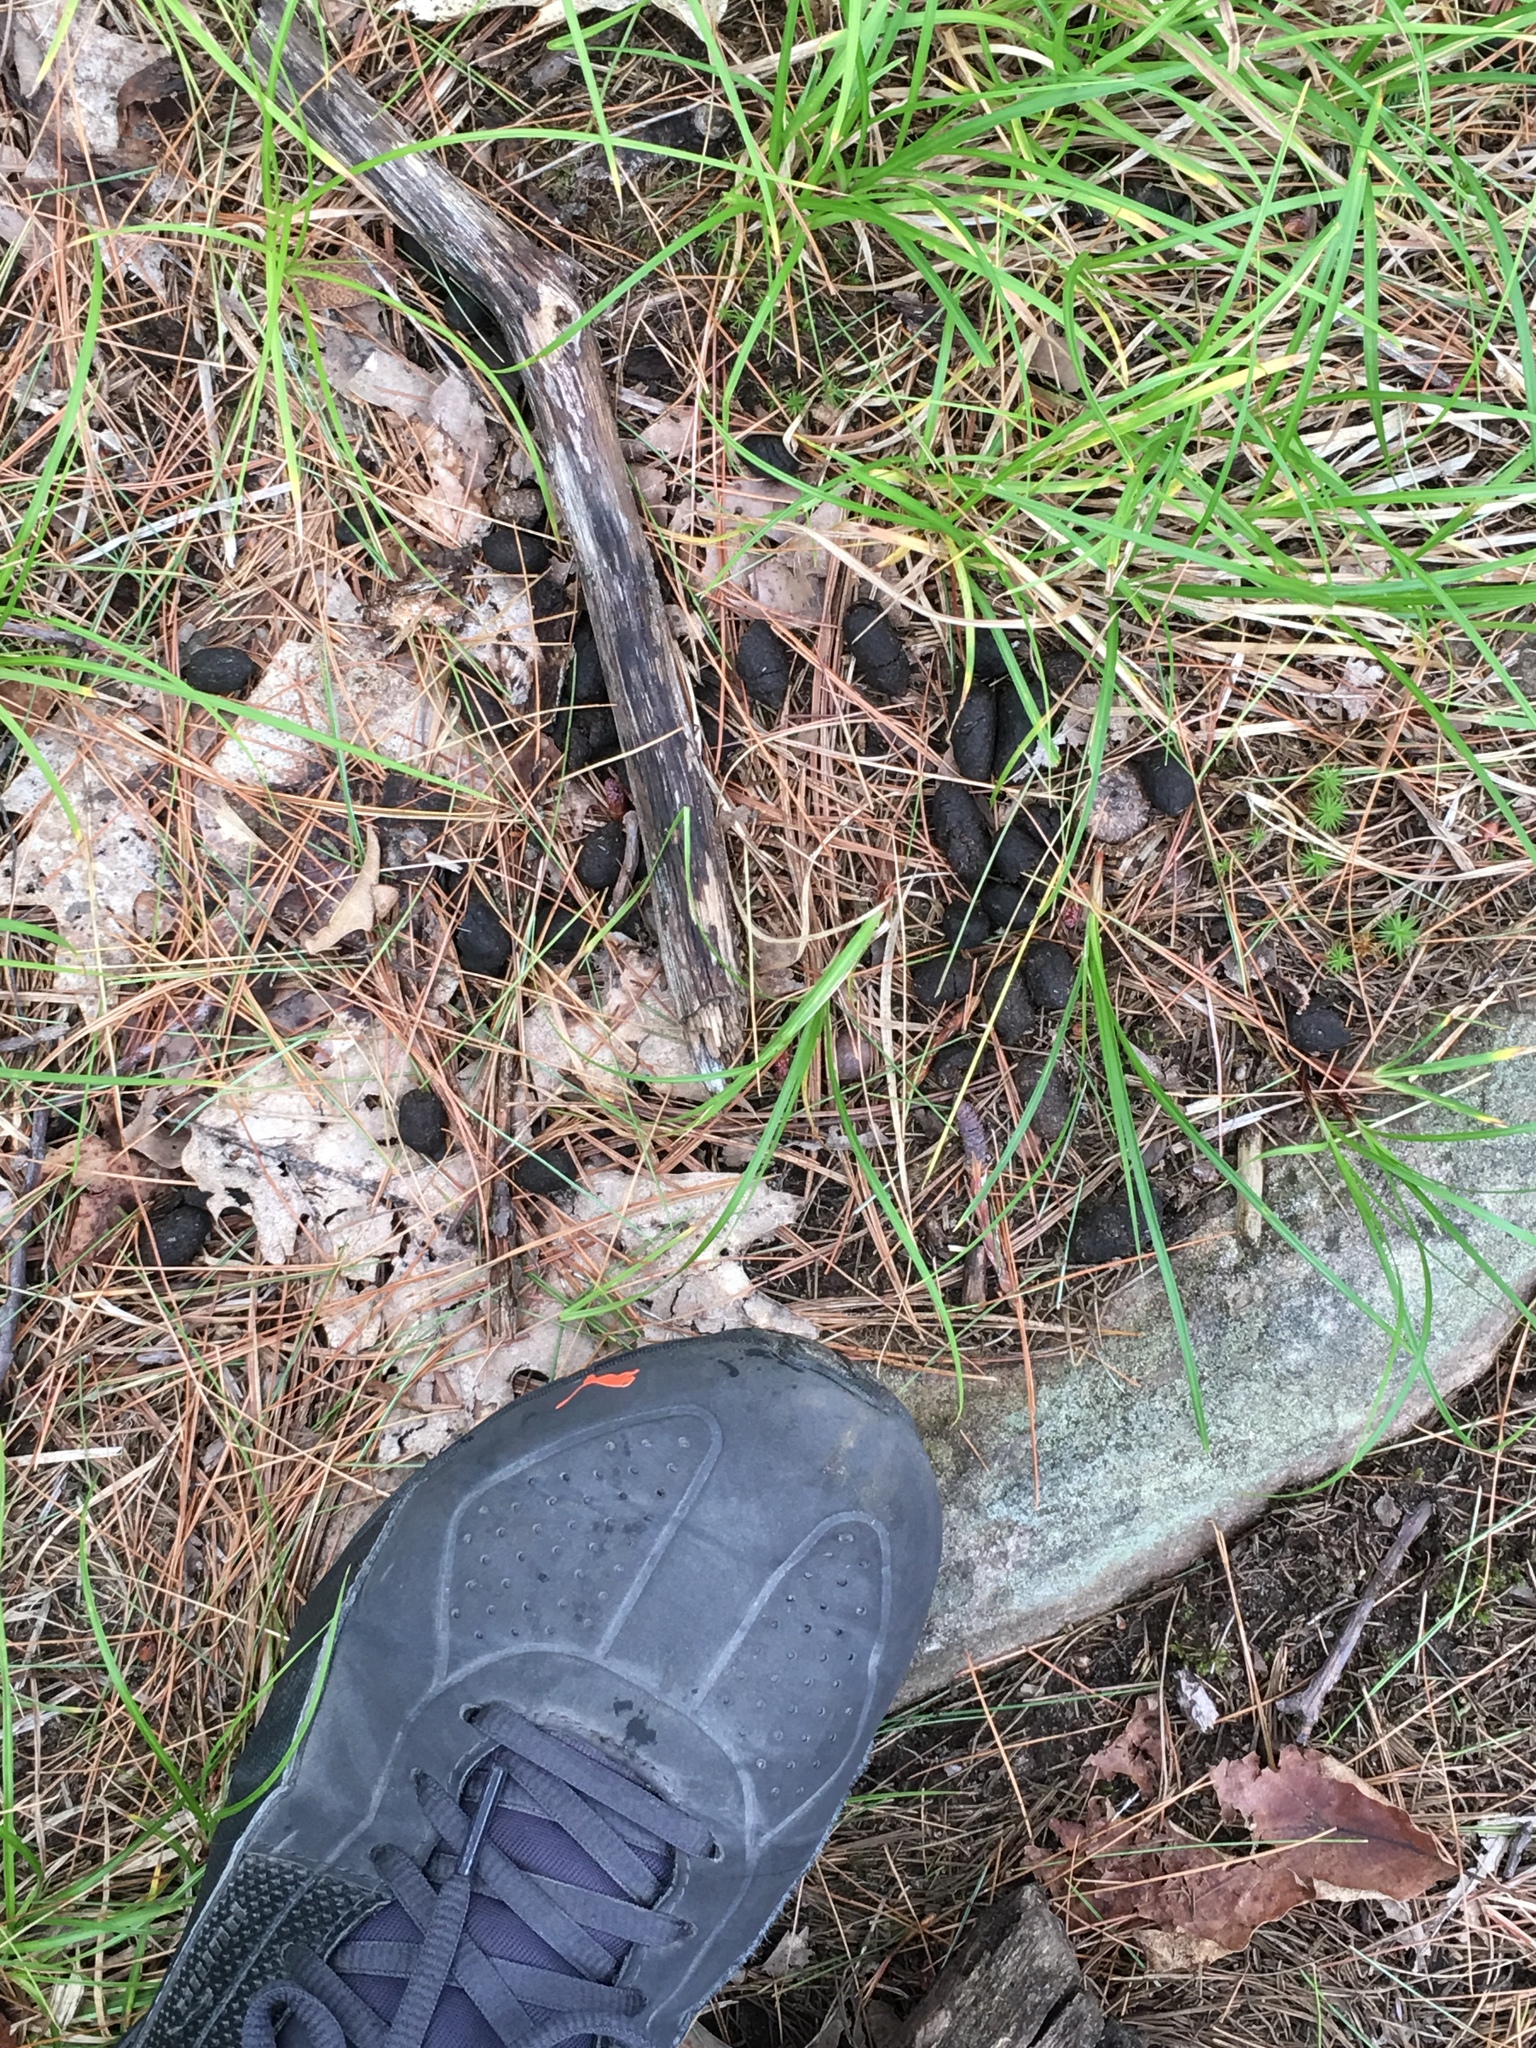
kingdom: Animalia
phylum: Chordata
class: Mammalia
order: Artiodactyla
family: Cervidae
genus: Odocoileus
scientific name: Odocoileus virginianus
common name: White-tailed deer
